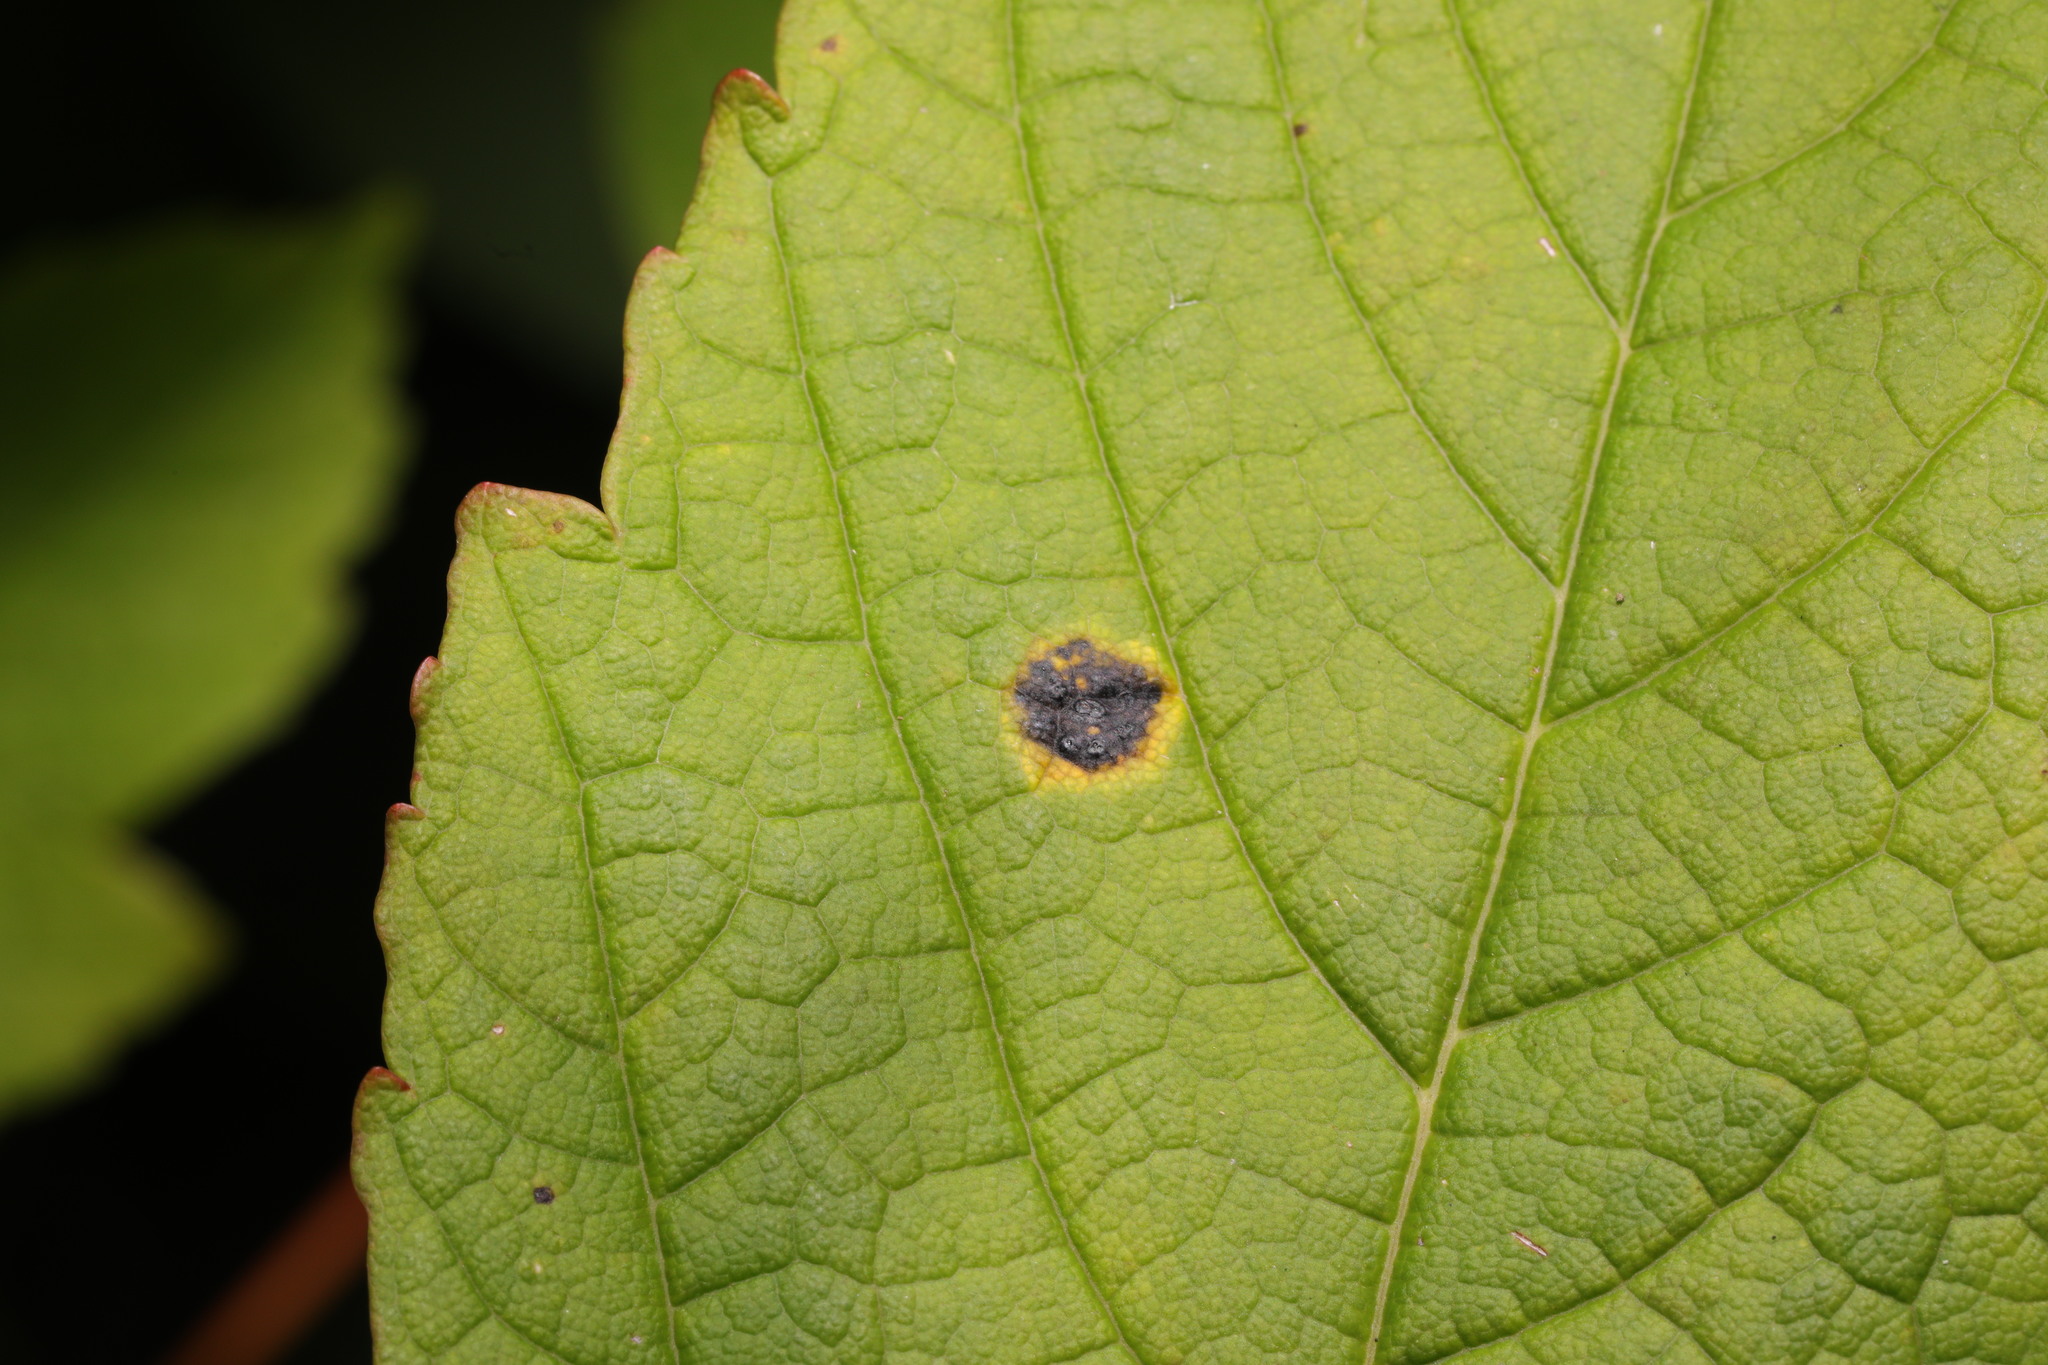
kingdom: Fungi
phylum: Ascomycota
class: Leotiomycetes
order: Rhytismatales
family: Rhytismataceae
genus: Rhytisma
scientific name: Rhytisma acerinum
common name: European tar spot
